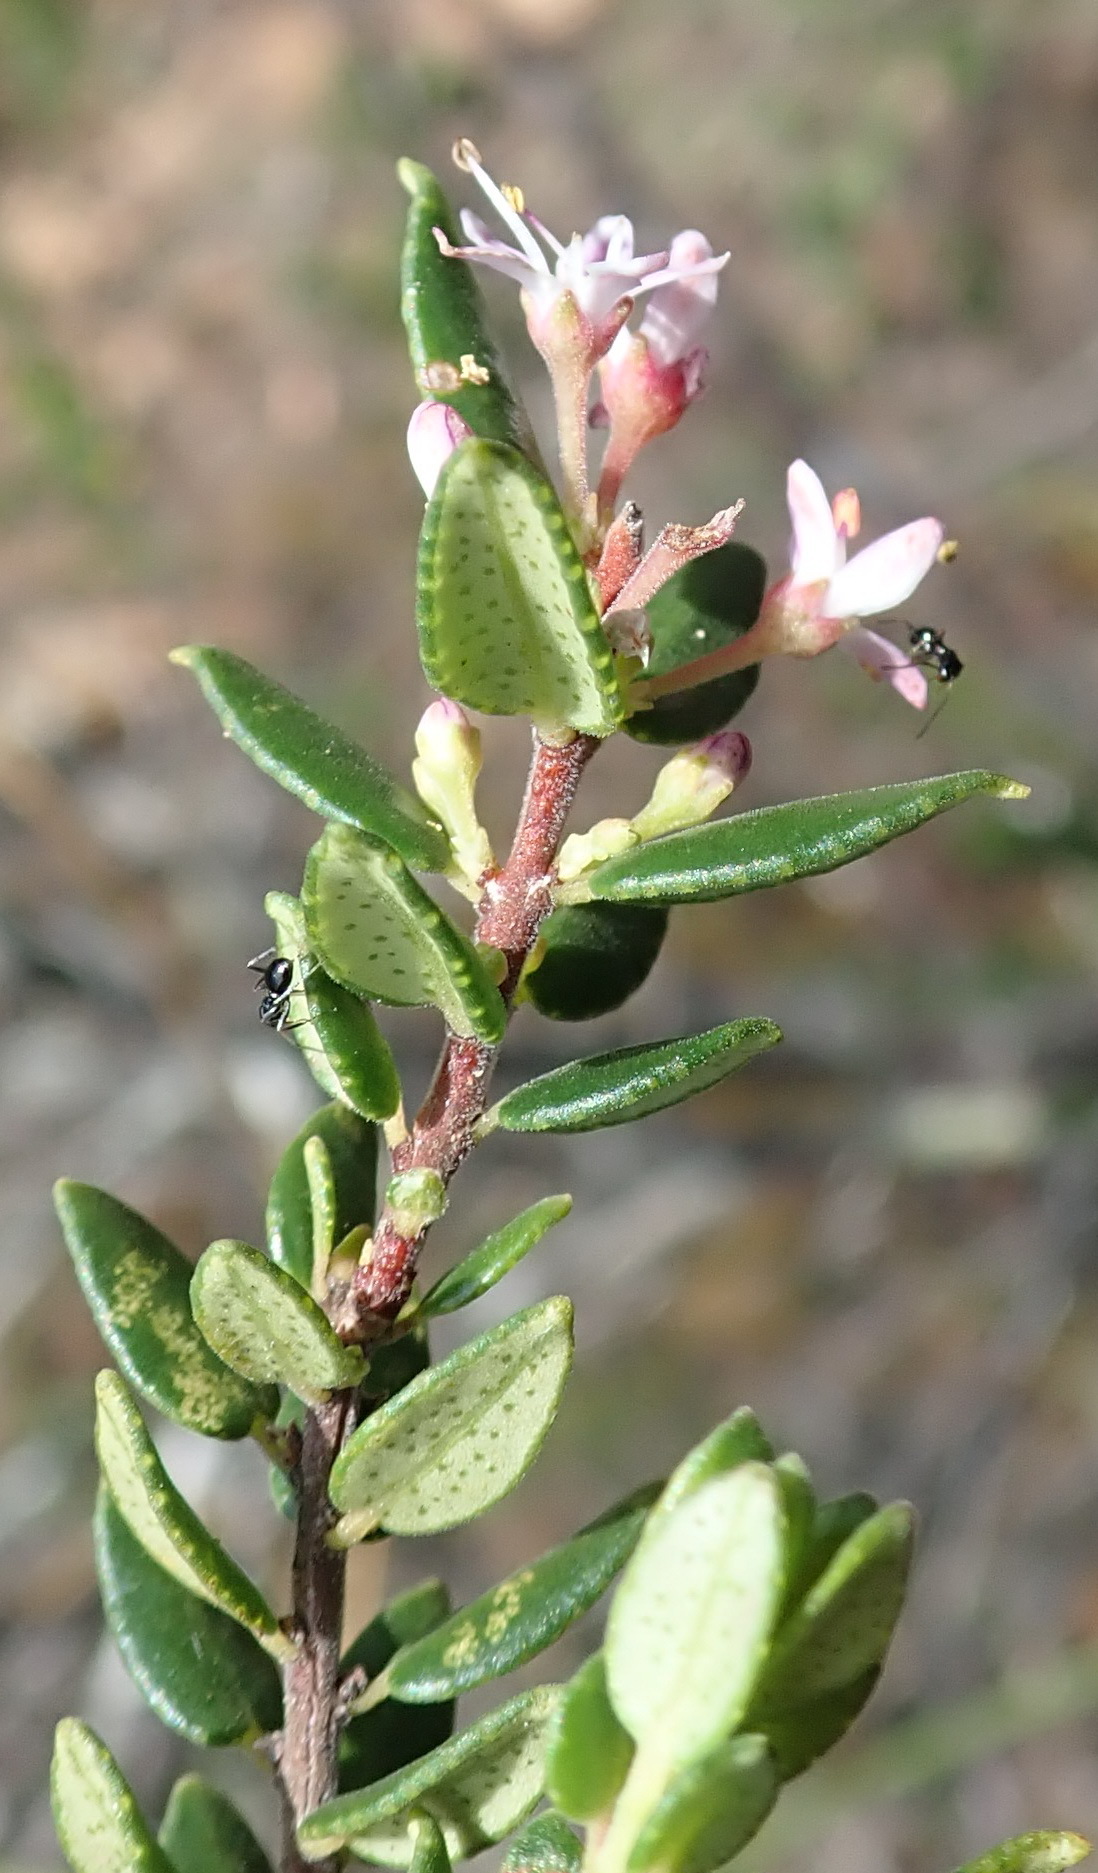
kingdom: Plantae
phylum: Tracheophyta
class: Magnoliopsida
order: Sapindales
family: Rutaceae
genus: Agathosma
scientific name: Agathosma ovata
